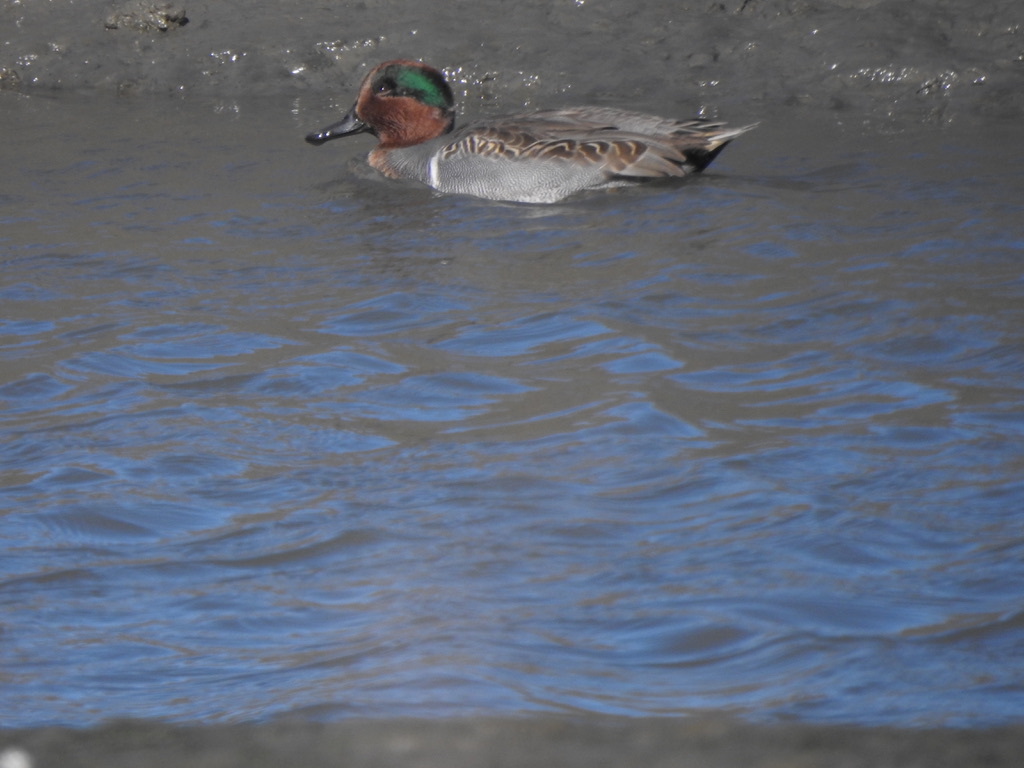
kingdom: Animalia
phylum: Chordata
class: Aves
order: Anseriformes
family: Anatidae
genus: Anas
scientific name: Anas crecca
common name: Eurasian teal
